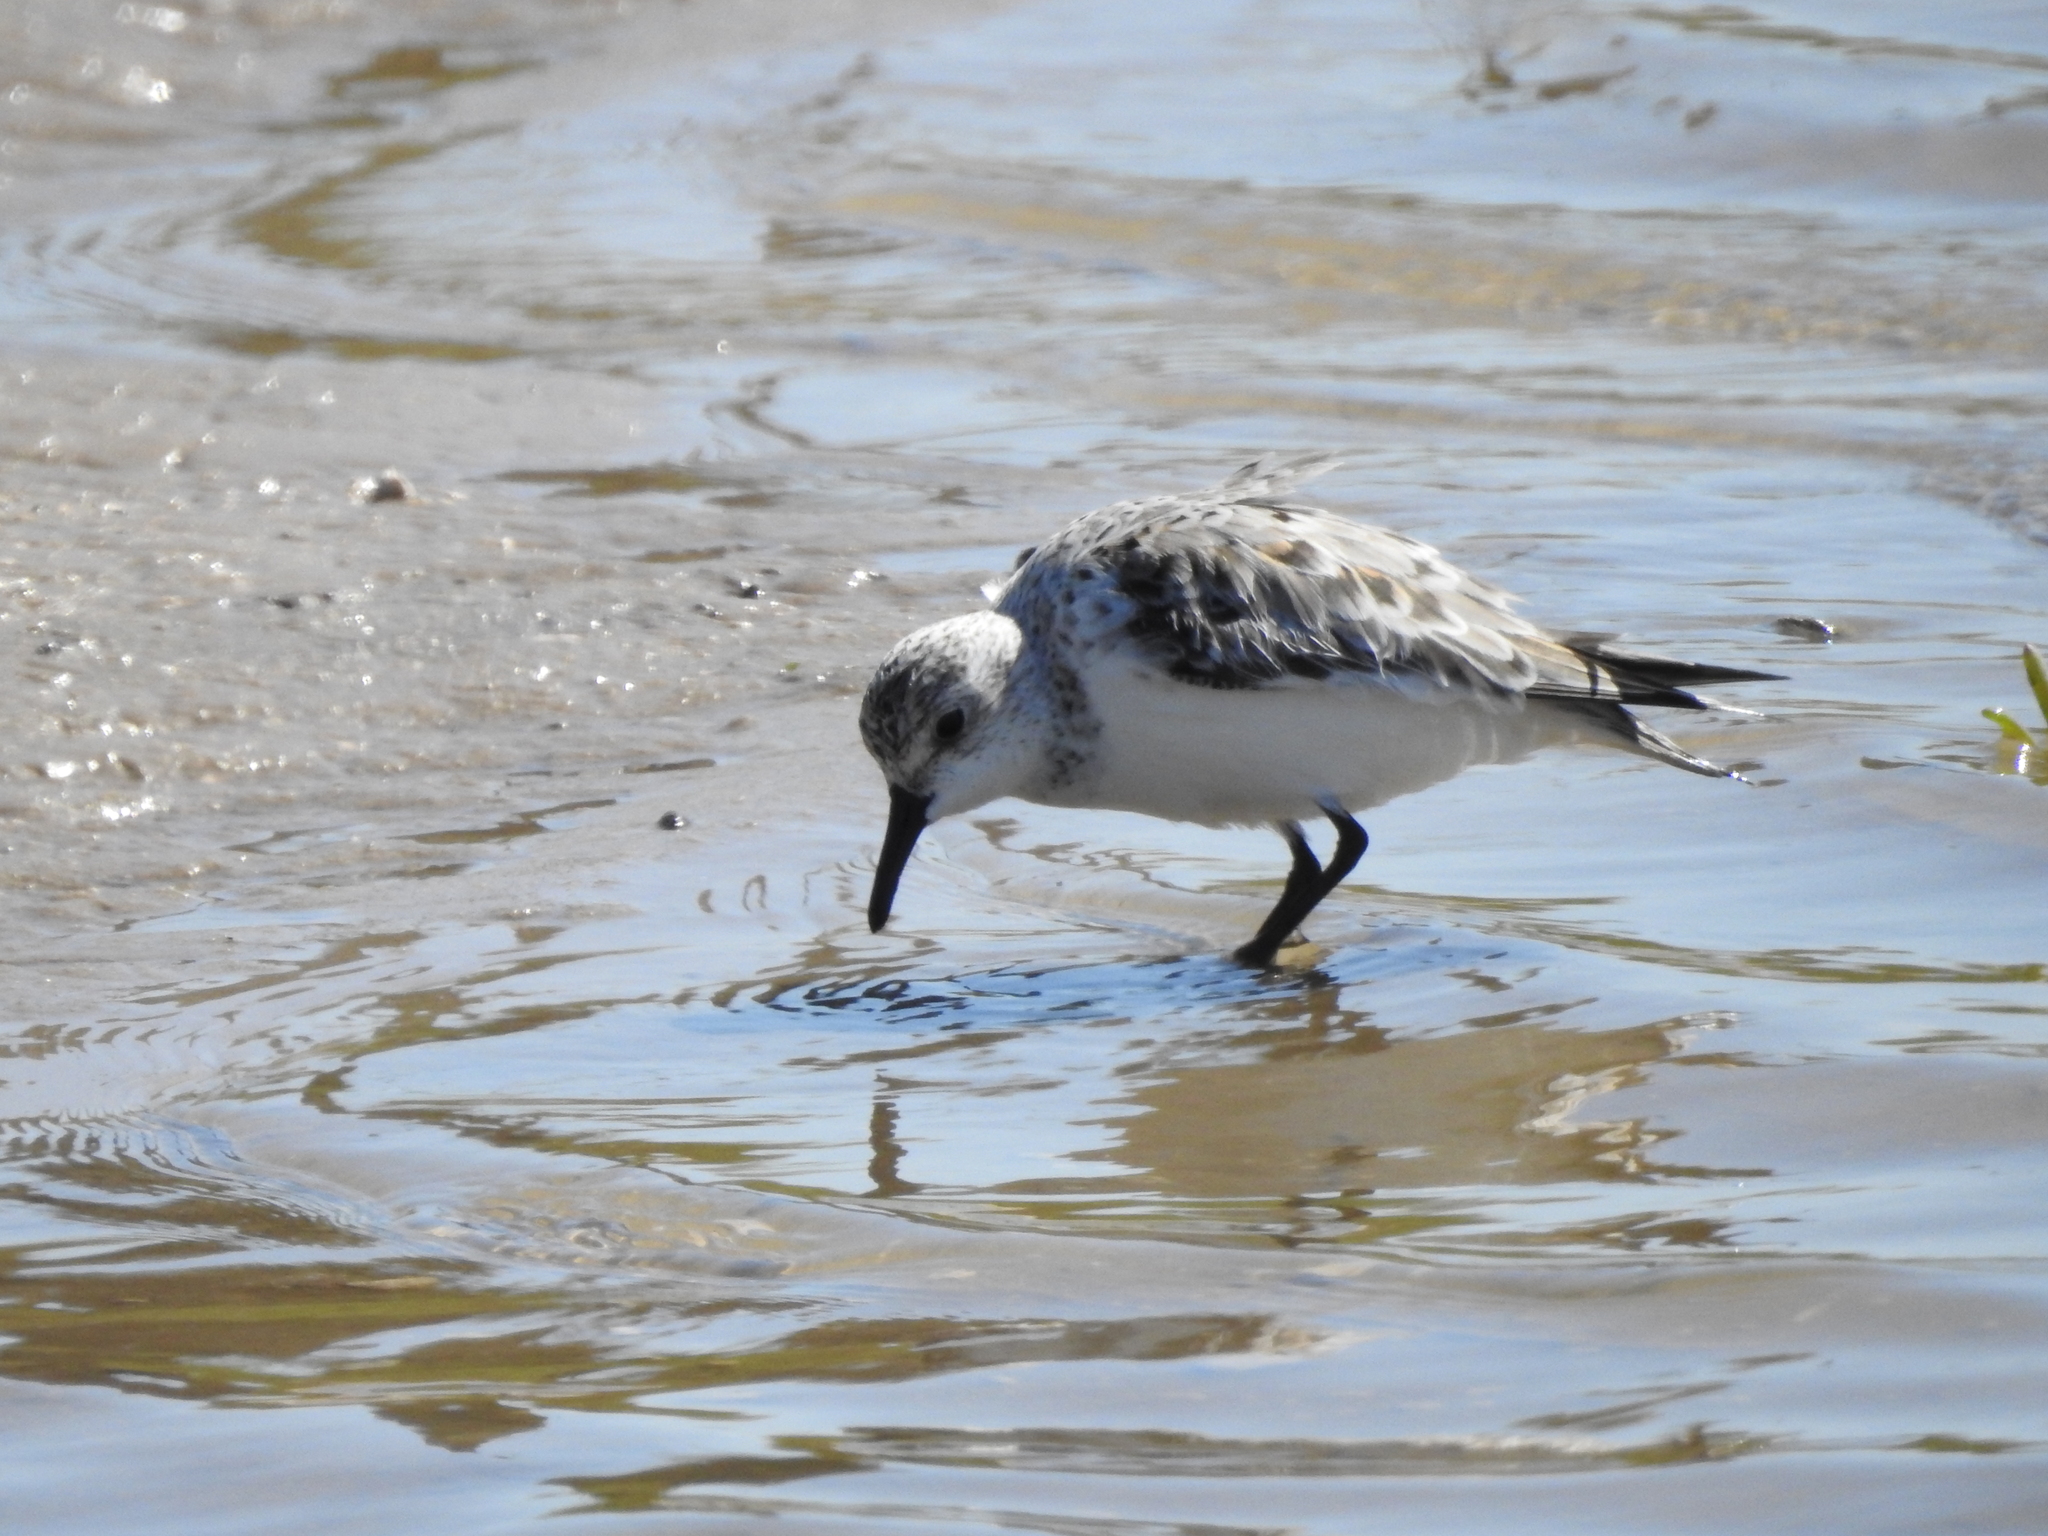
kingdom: Animalia
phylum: Chordata
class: Aves
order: Charadriiformes
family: Scolopacidae
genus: Calidris
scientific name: Calidris alba
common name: Sanderling
